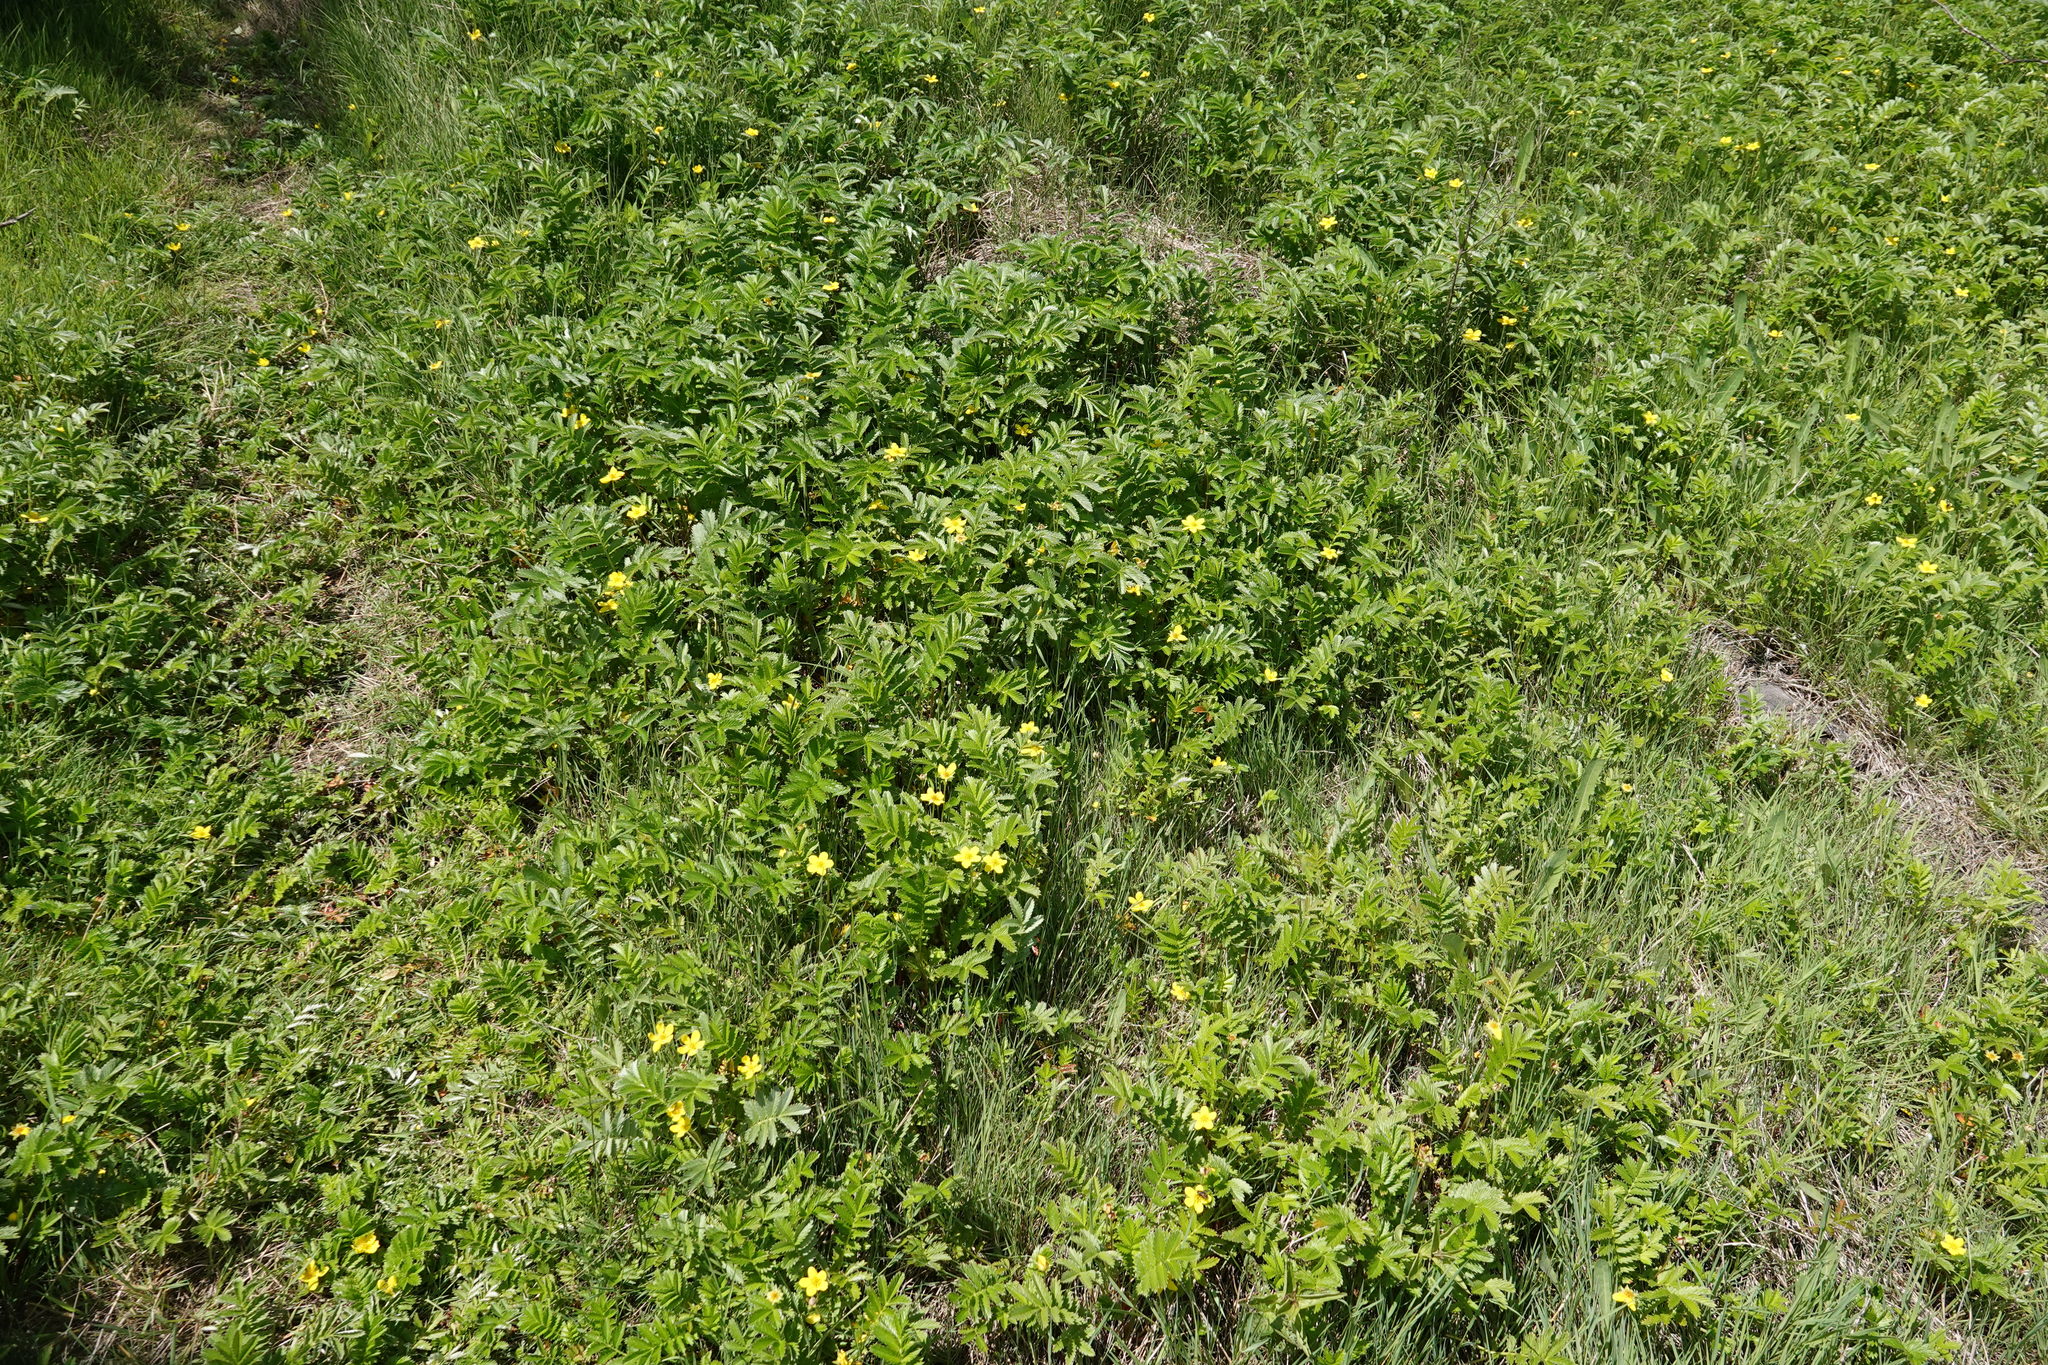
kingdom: Plantae
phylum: Tracheophyta
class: Magnoliopsida
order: Rosales
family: Rosaceae
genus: Argentina
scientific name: Argentina anserina
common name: Common silverweed
